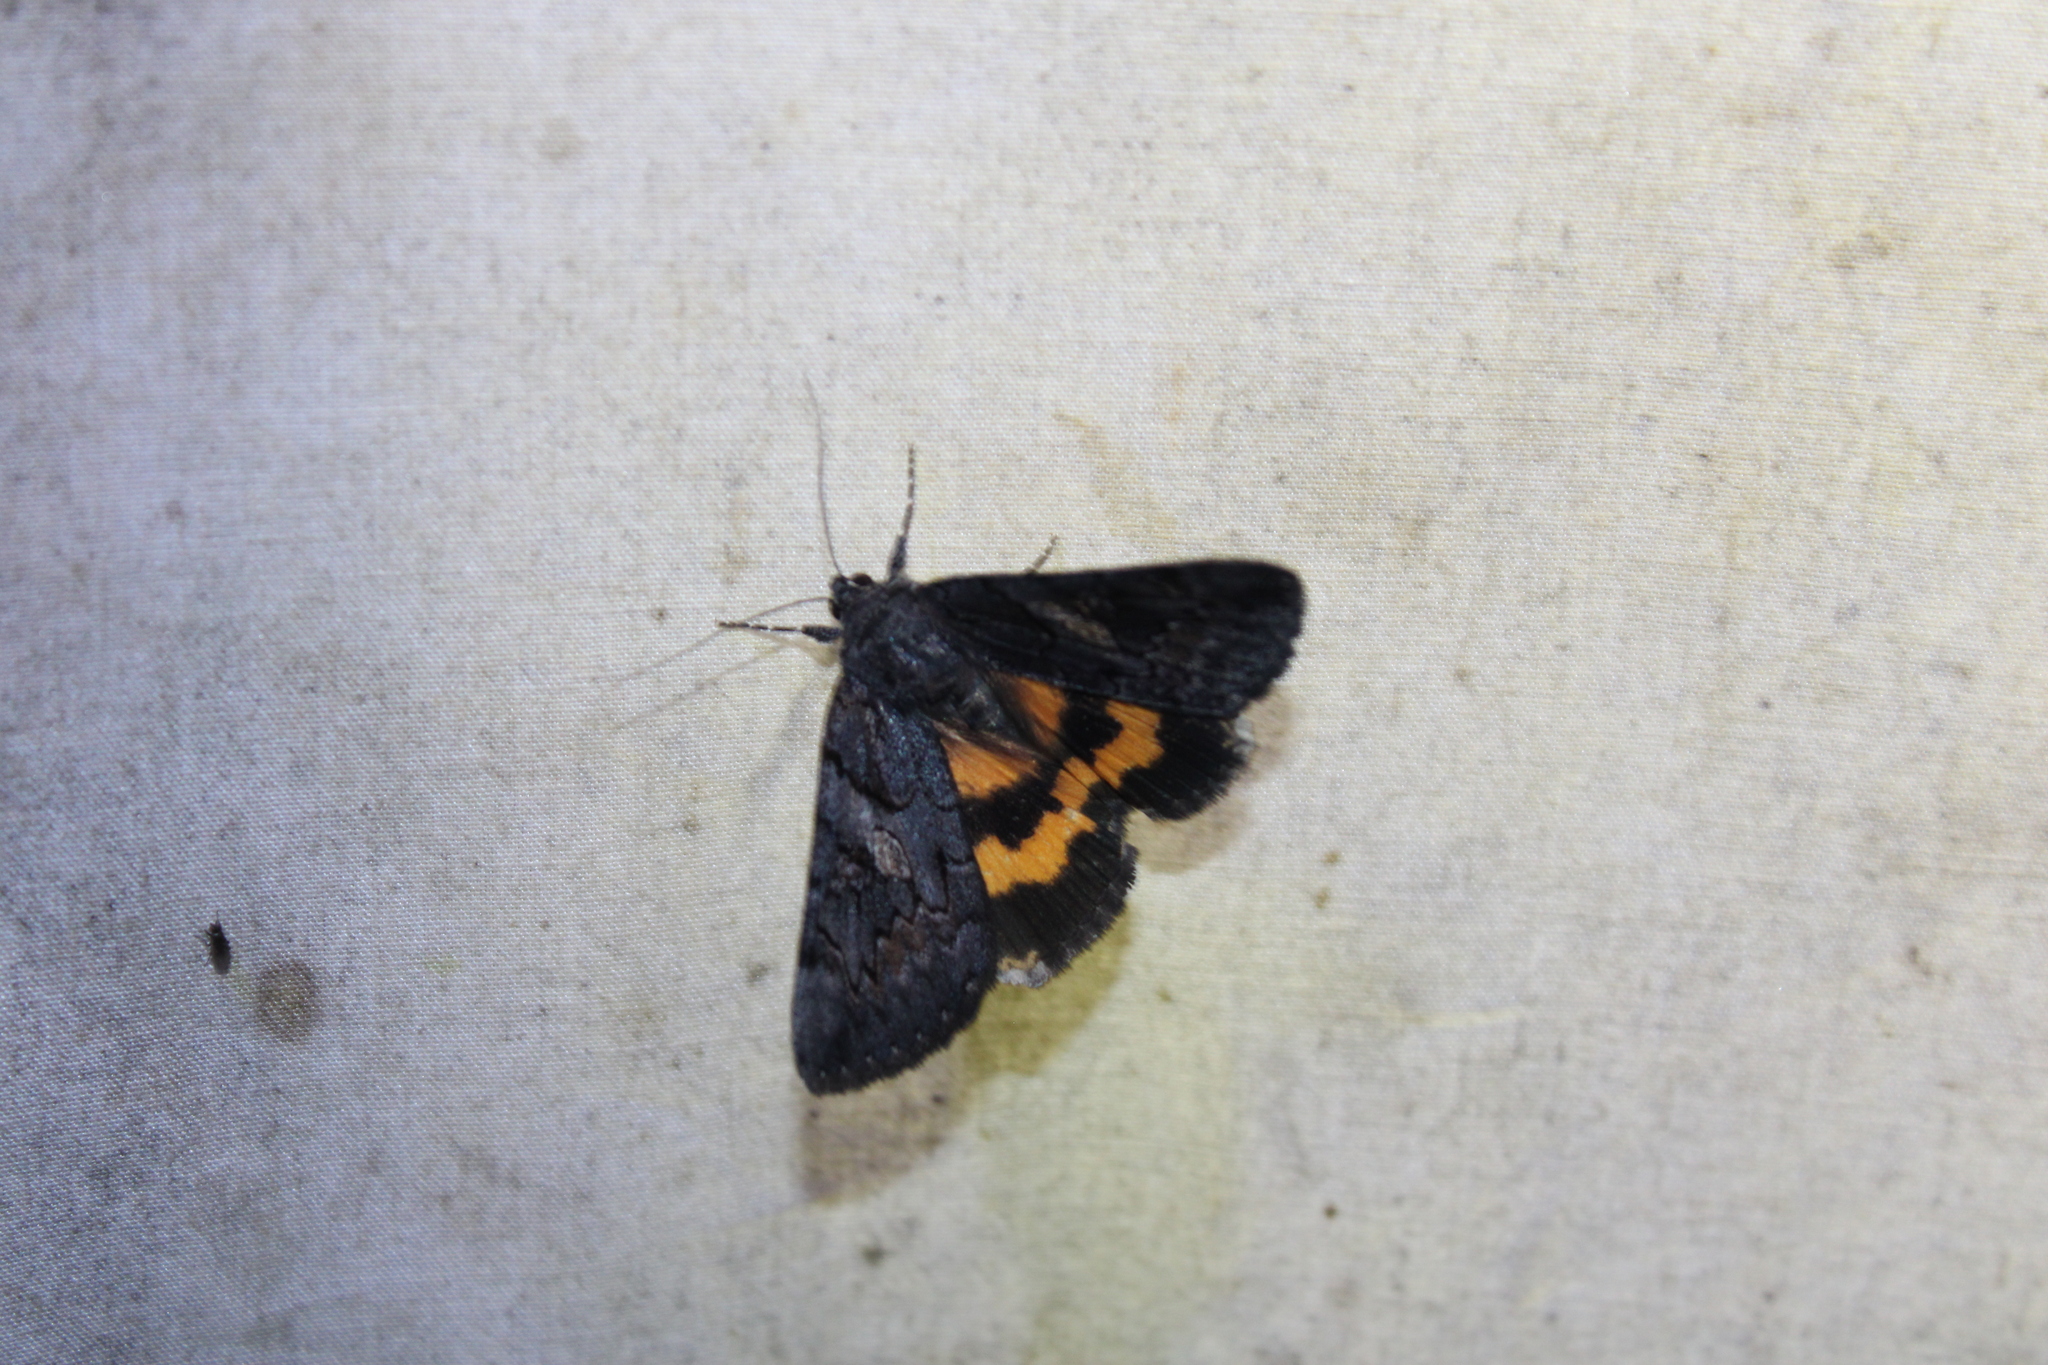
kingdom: Animalia
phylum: Arthropoda
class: Insecta
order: Lepidoptera
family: Erebidae
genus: Catocala
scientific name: Catocala antinympha
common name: Sweetfern underwing
